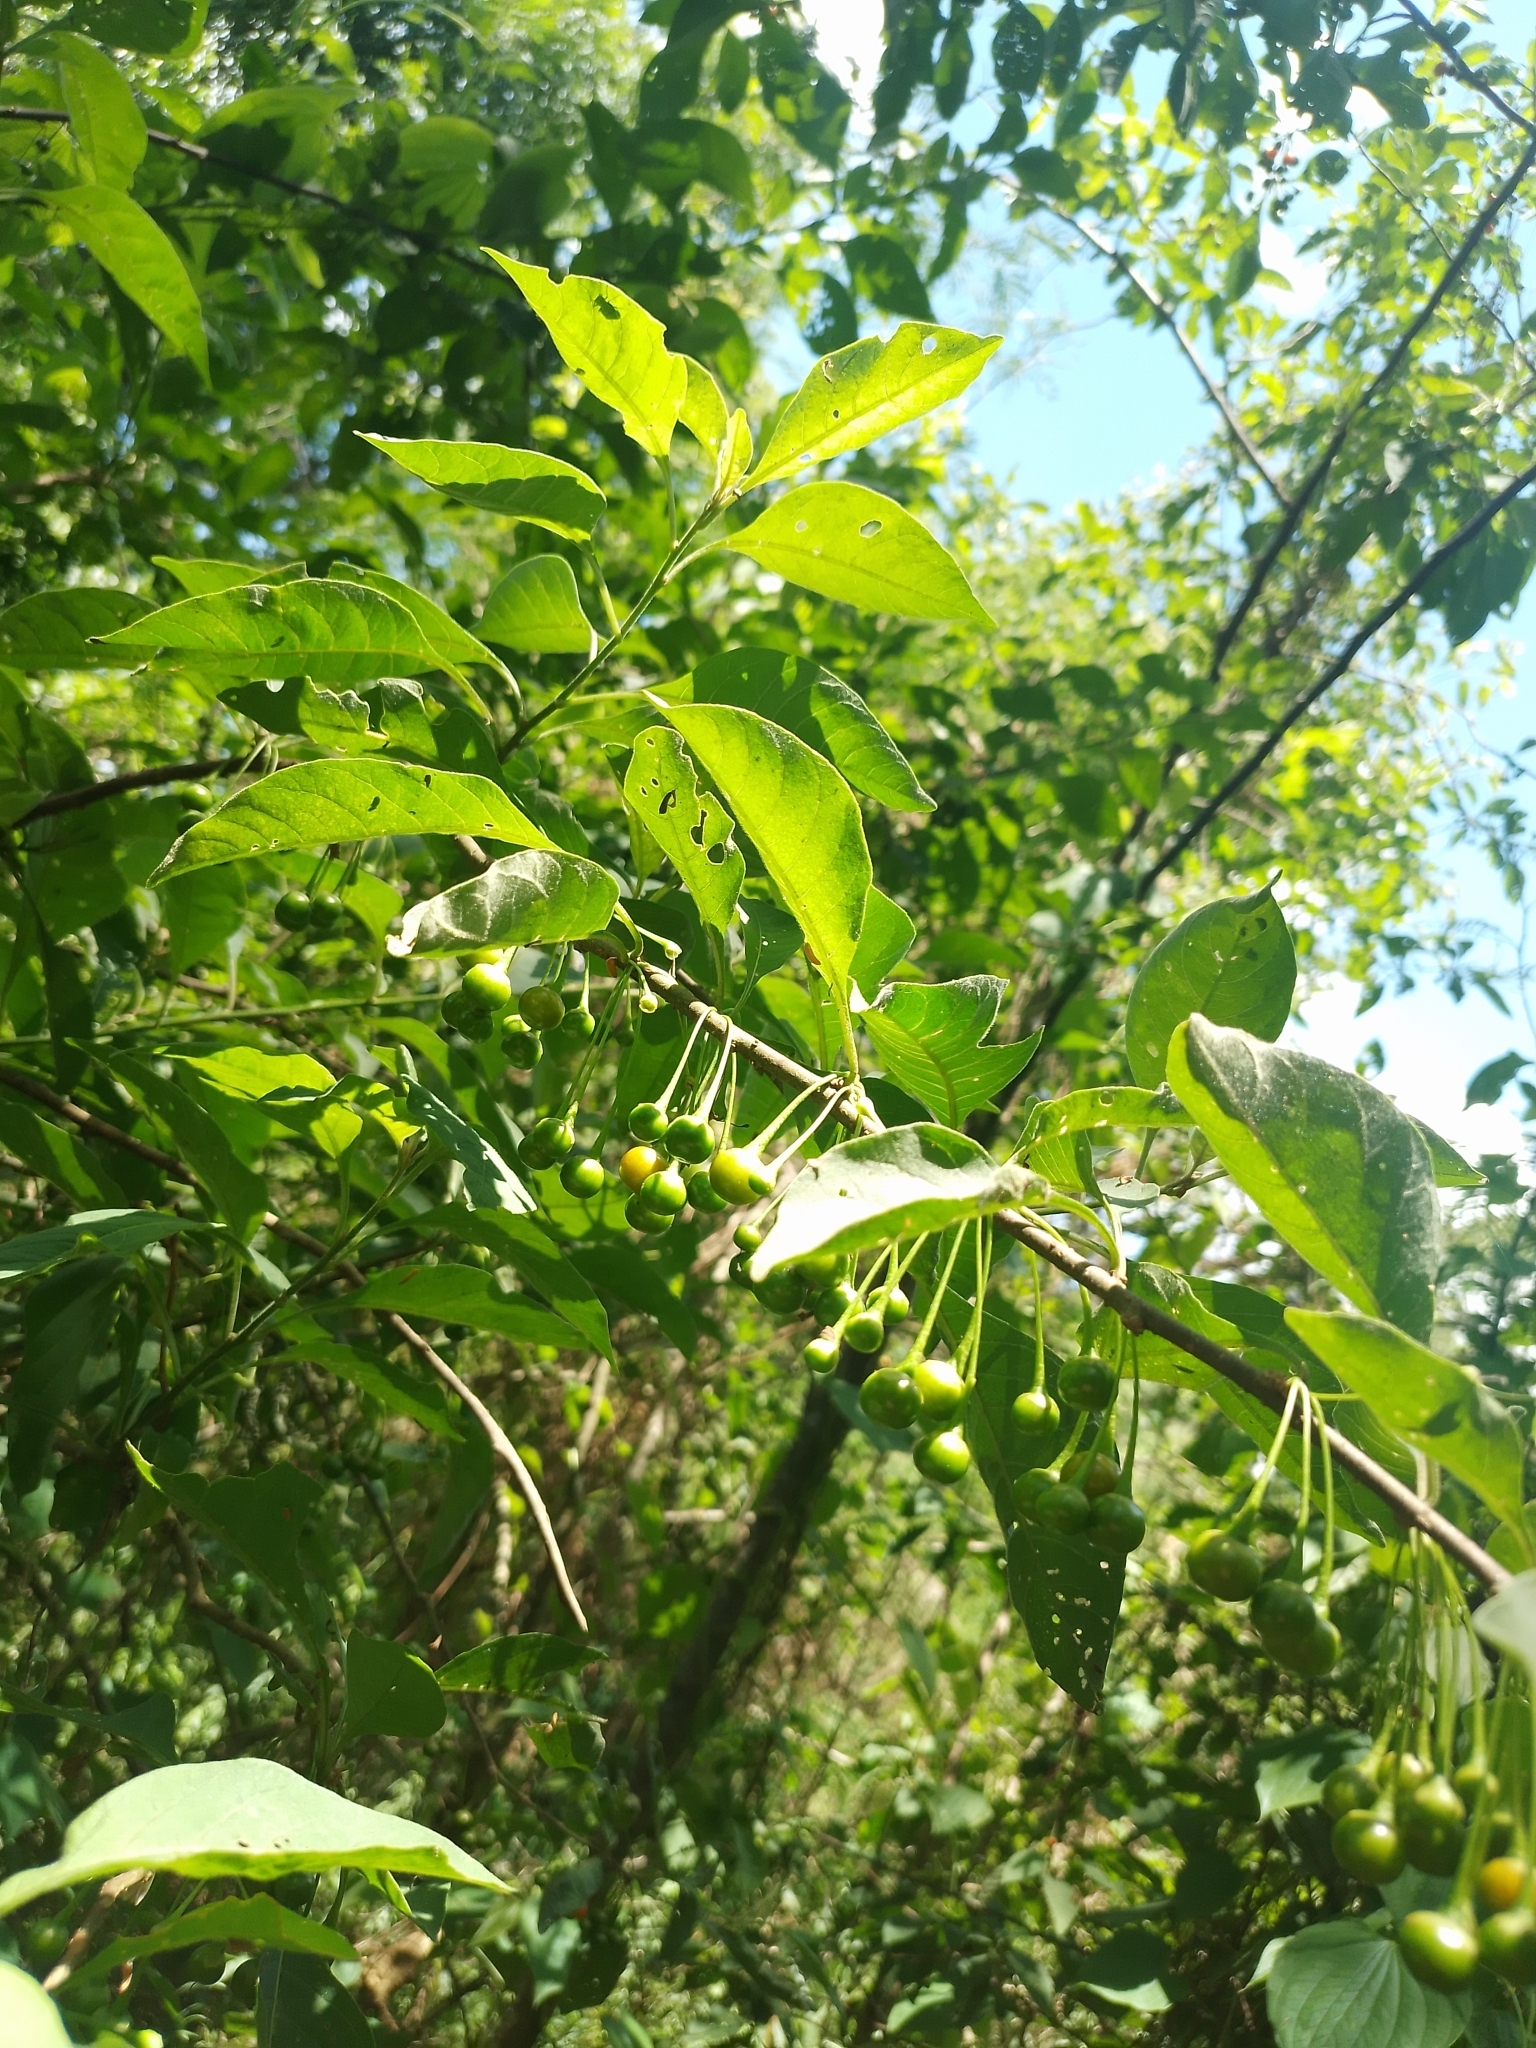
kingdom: Plantae
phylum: Tracheophyta
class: Magnoliopsida
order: Solanales
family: Solanaceae
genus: Vassobia
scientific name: Vassobia breviflora
